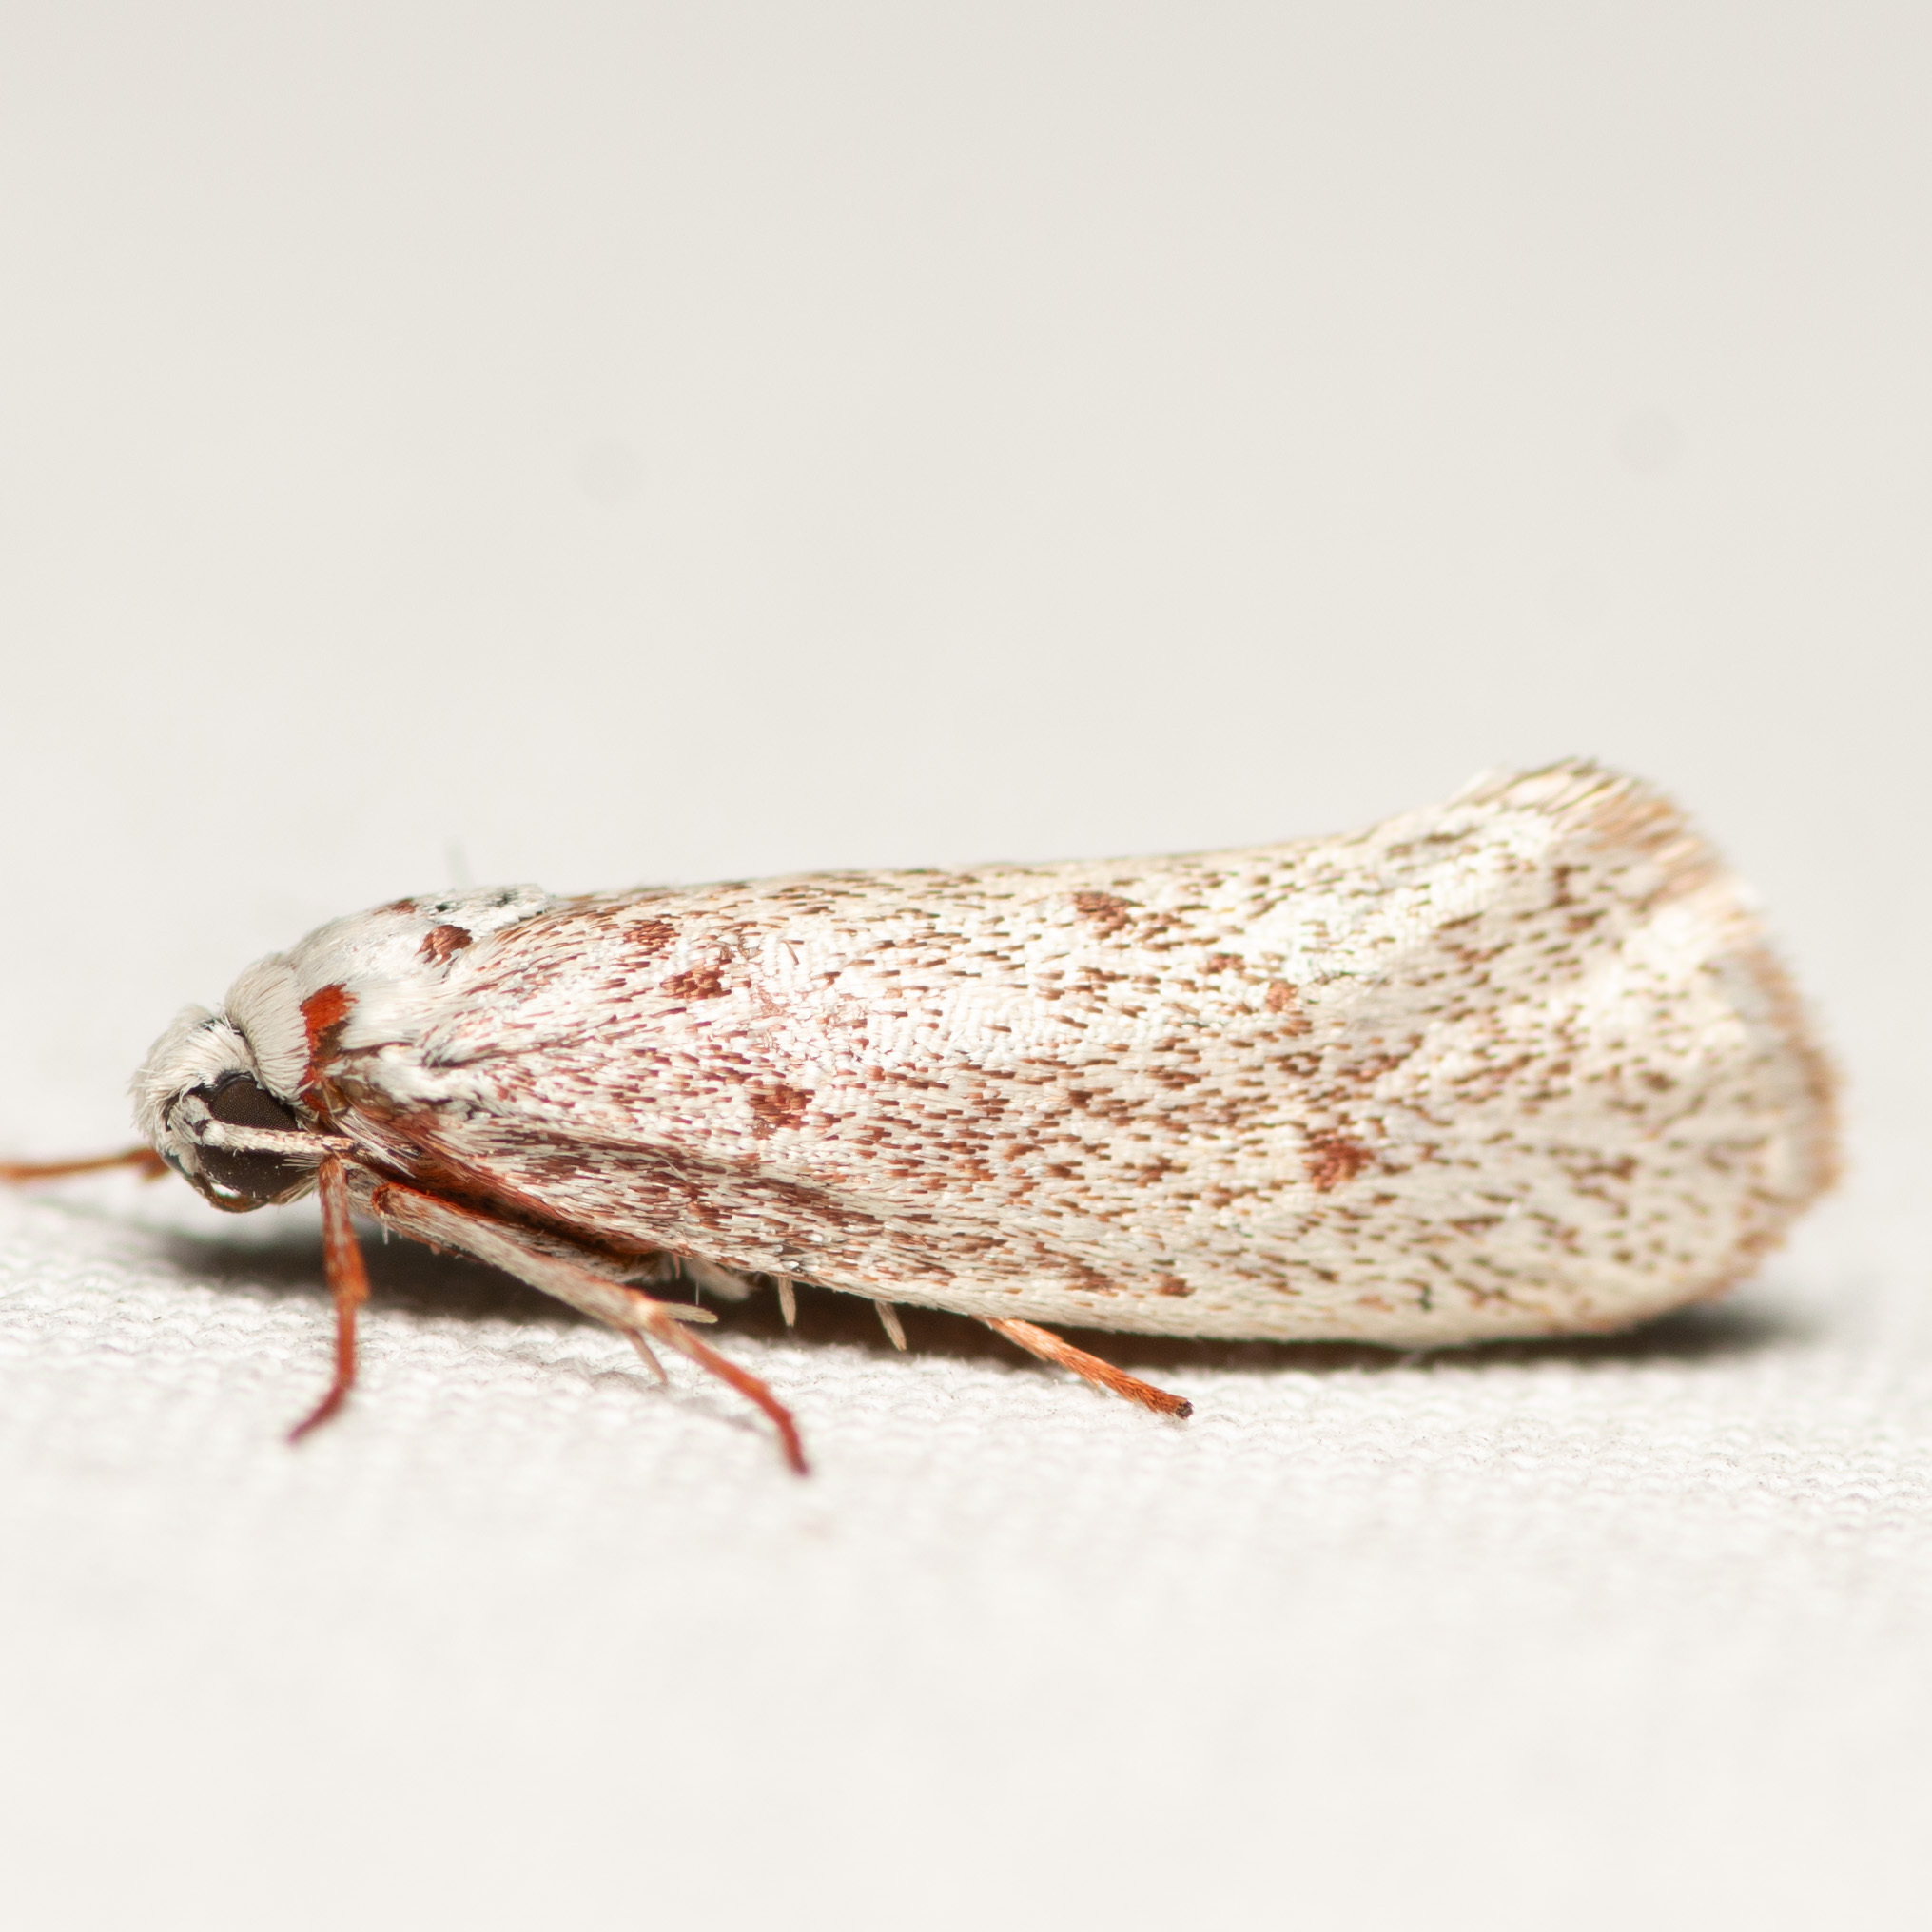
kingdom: Animalia
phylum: Arthropoda
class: Insecta
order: Lepidoptera
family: Lacturidae
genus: Lactura
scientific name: Lactura
